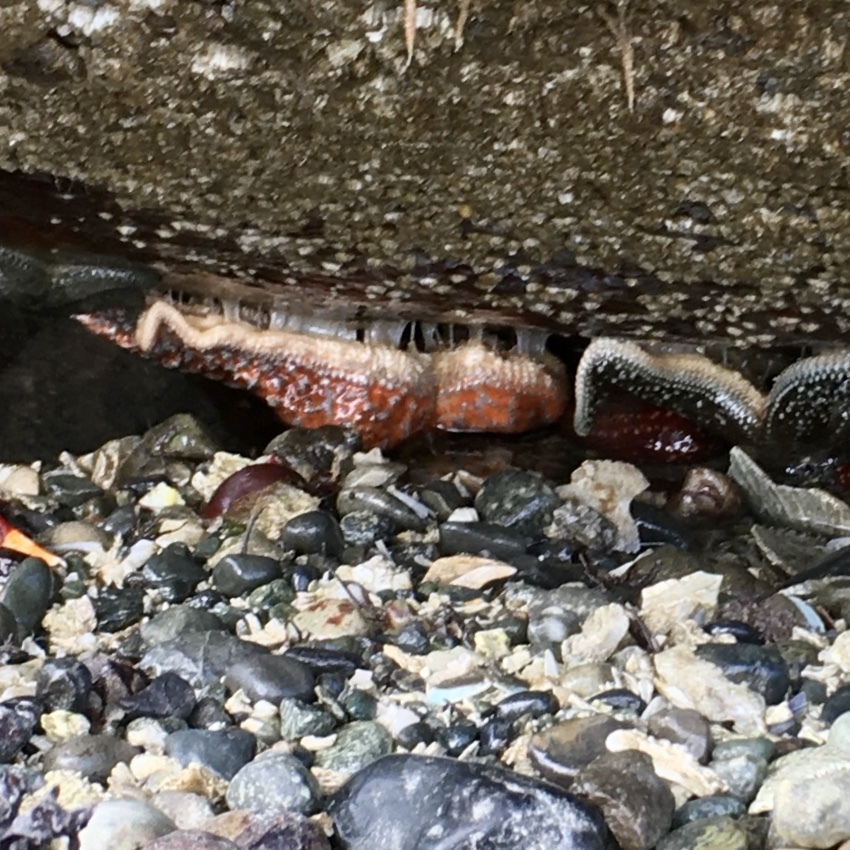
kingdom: Animalia
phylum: Echinodermata
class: Asteroidea
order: Forcipulatida
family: Asteriidae
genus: Pisaster
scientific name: Pisaster ochraceus
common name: Ochre stars
